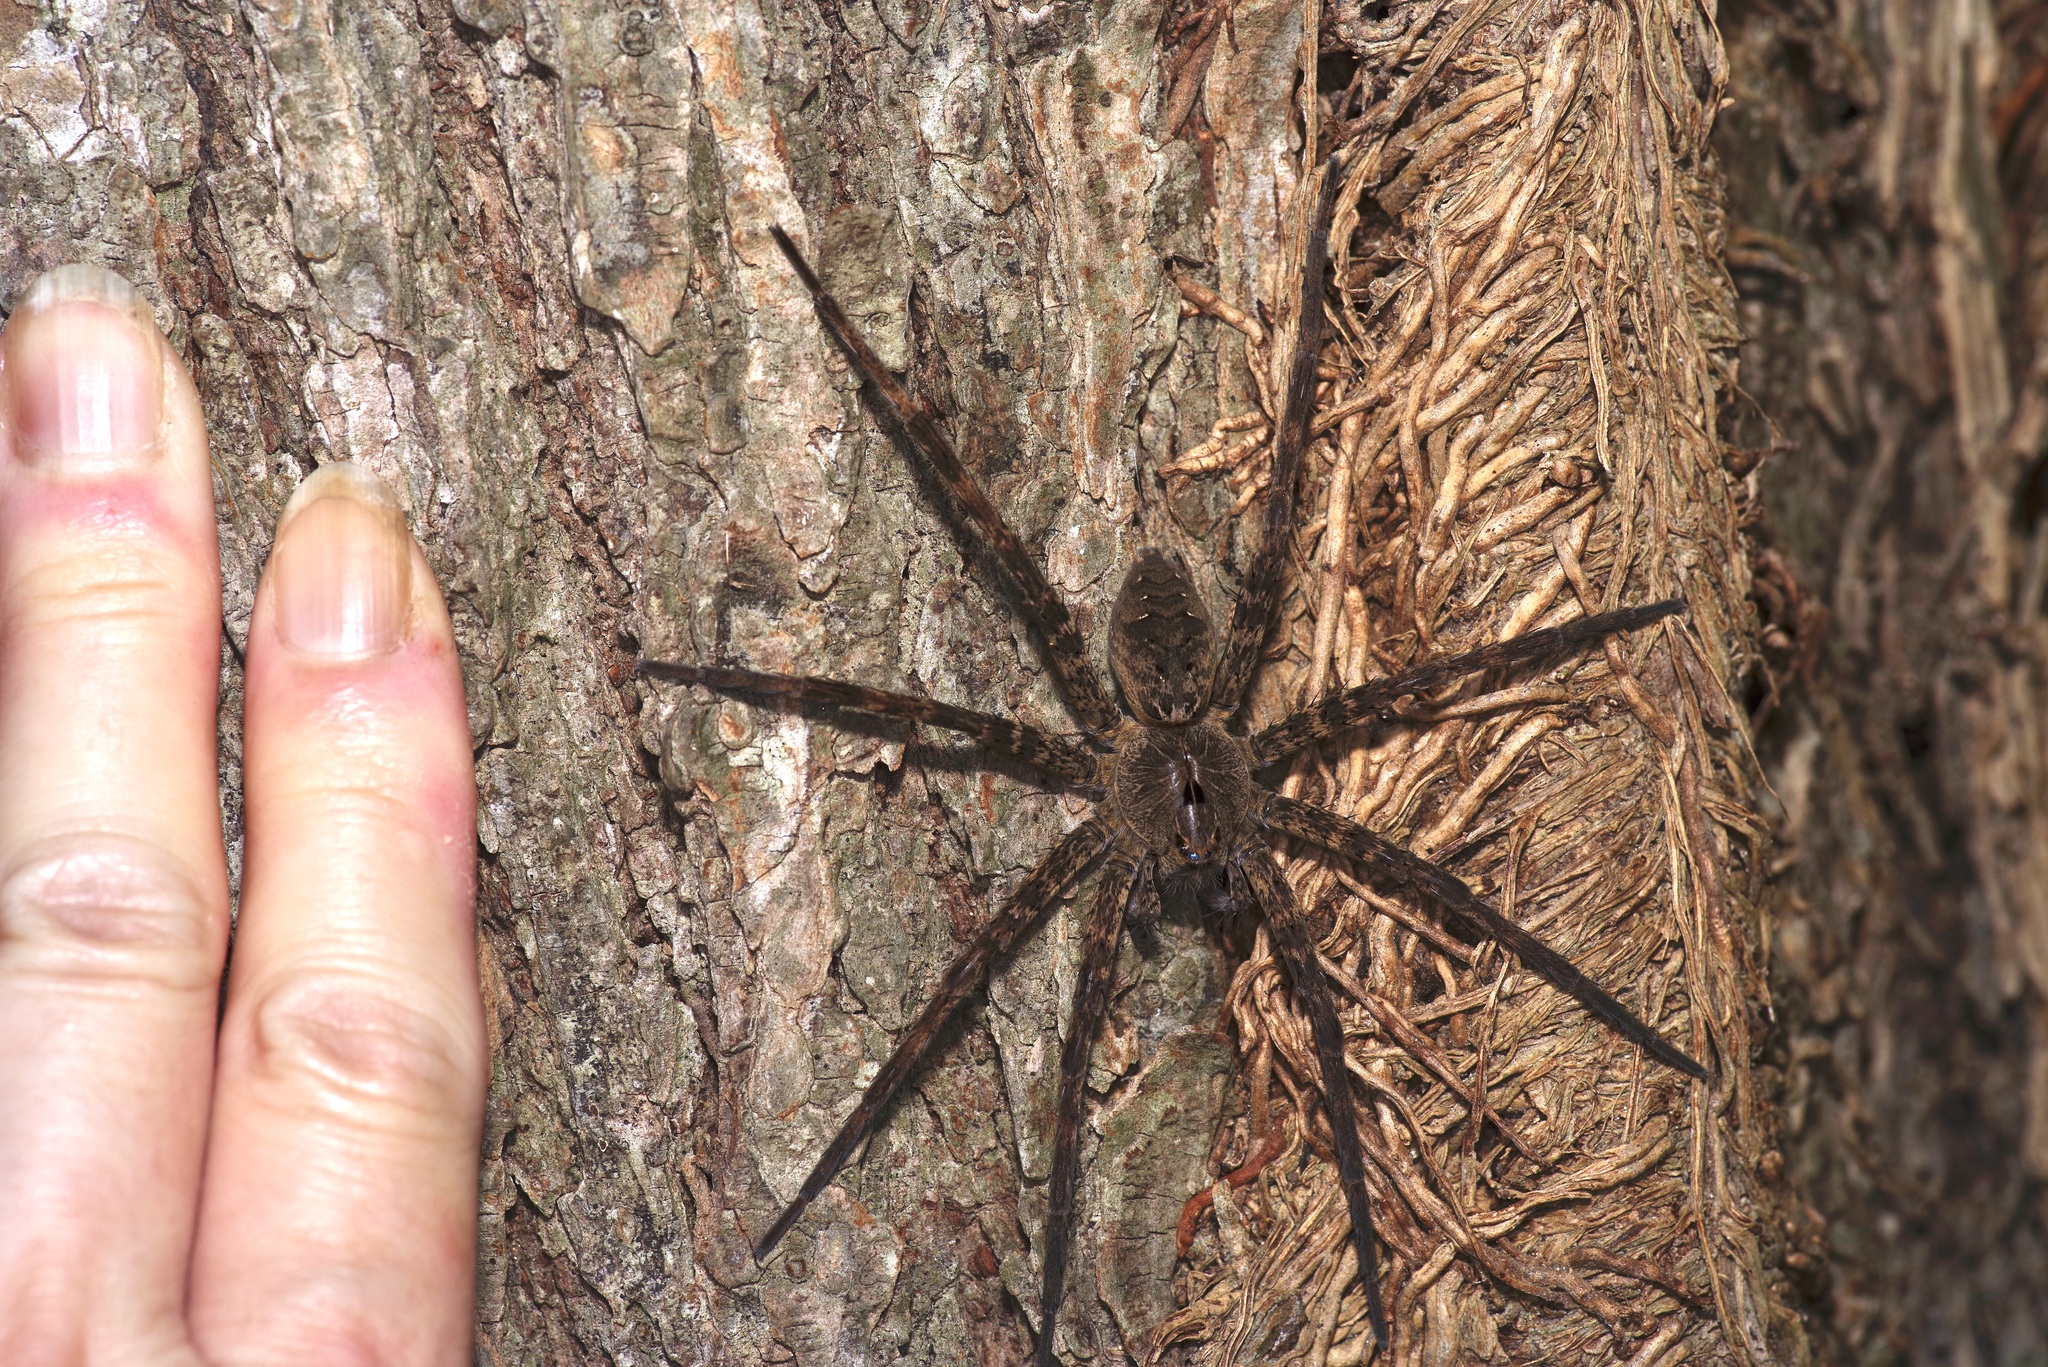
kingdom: Animalia
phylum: Arthropoda
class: Arachnida
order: Araneae
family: Pisauridae
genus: Dolomedes
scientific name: Dolomedes vittatus
